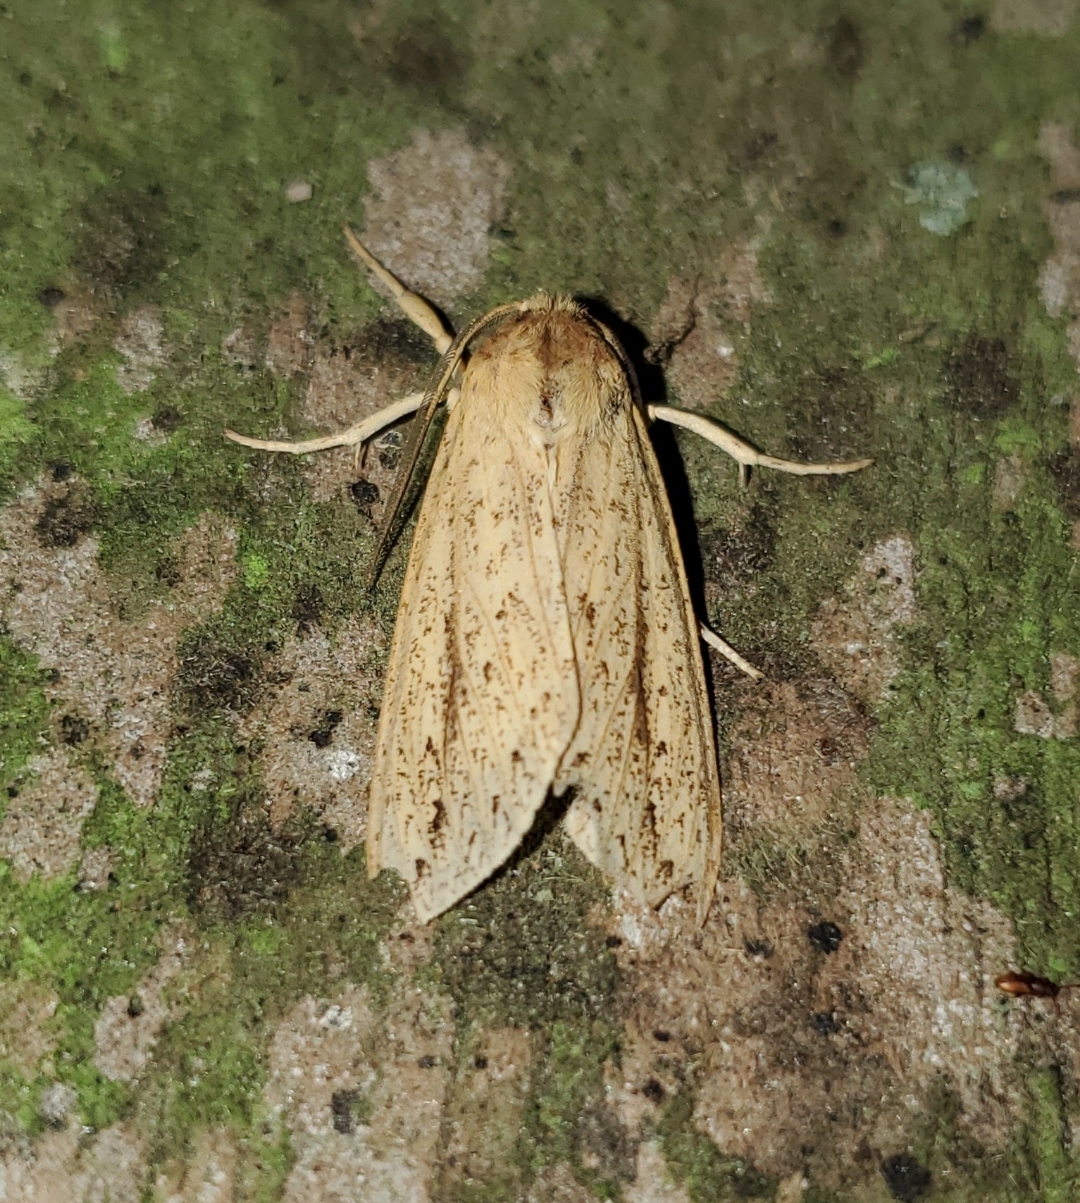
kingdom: Animalia
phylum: Arthropoda
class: Insecta
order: Lepidoptera
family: Erebidae
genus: Leucanopsis
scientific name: Leucanopsis longa
